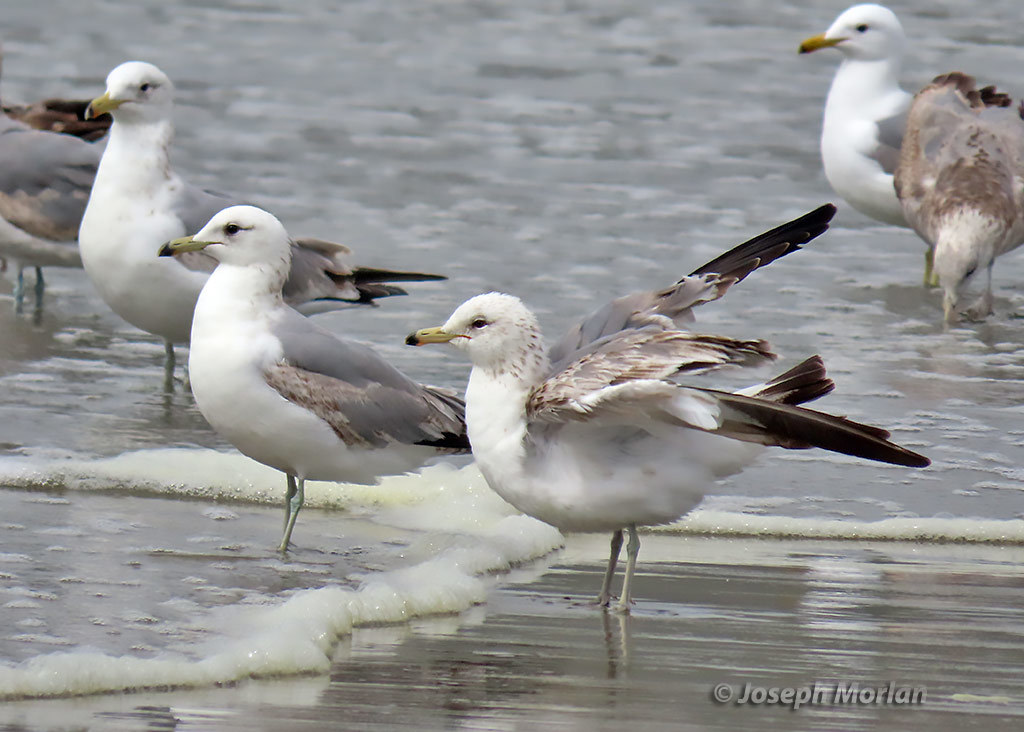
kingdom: Animalia
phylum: Chordata
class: Aves
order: Charadriiformes
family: Laridae
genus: Larus
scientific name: Larus californicus
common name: California gull
